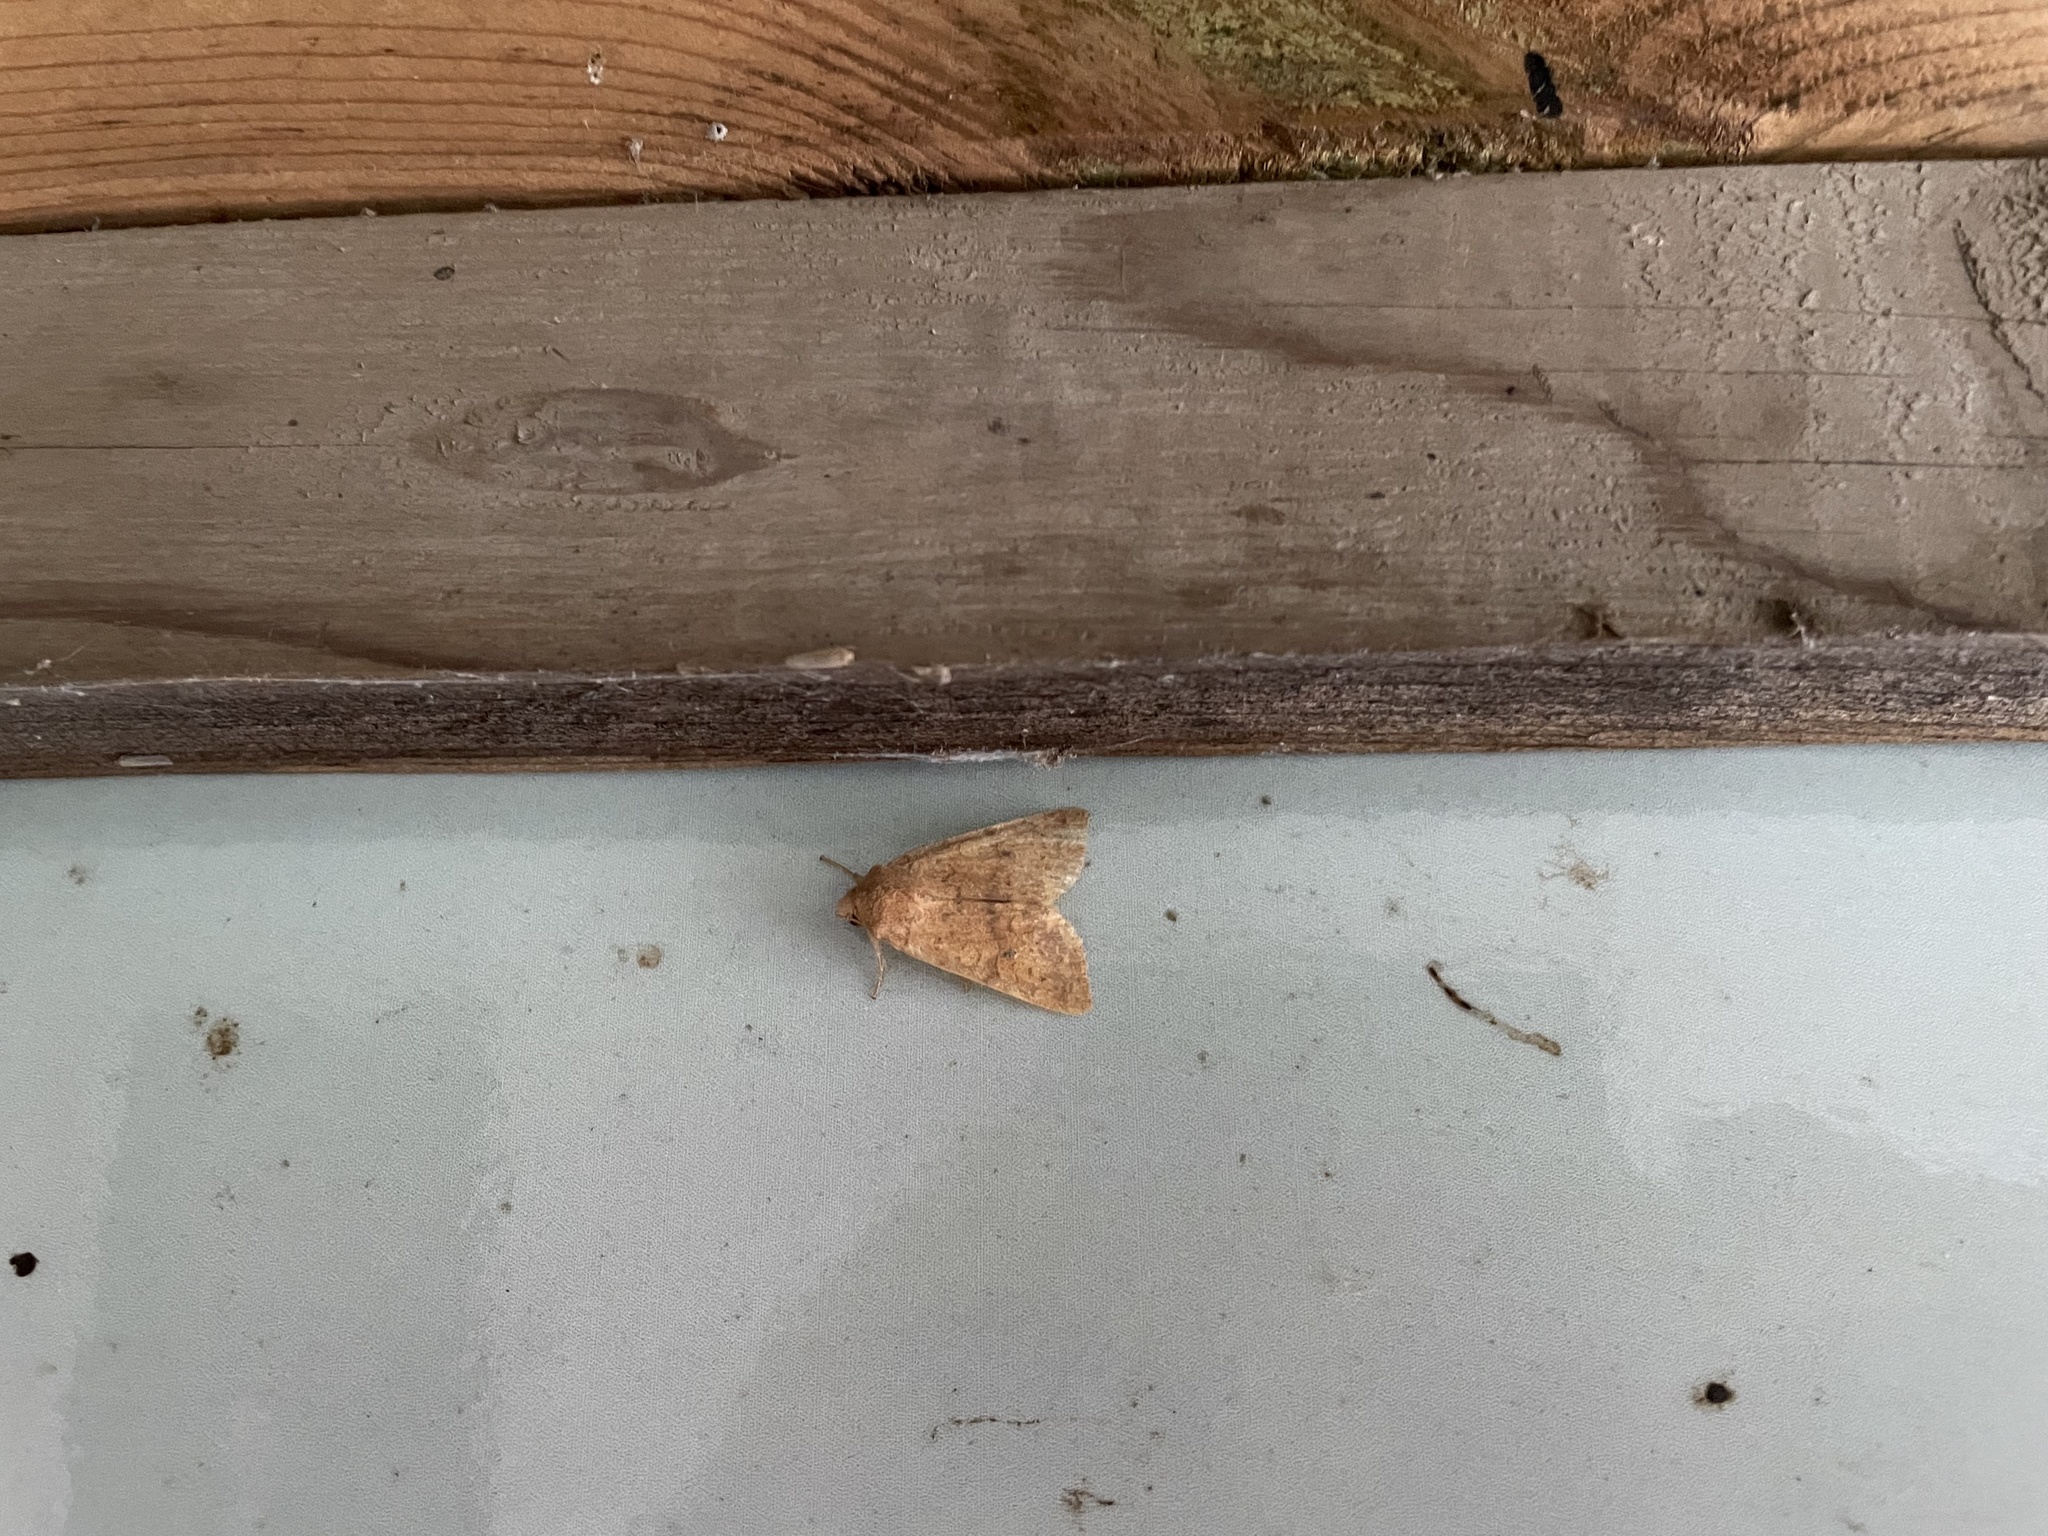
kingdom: Animalia
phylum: Arthropoda
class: Insecta
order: Lepidoptera
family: Noctuidae
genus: Agrochola
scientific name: Agrochola bicolorago
